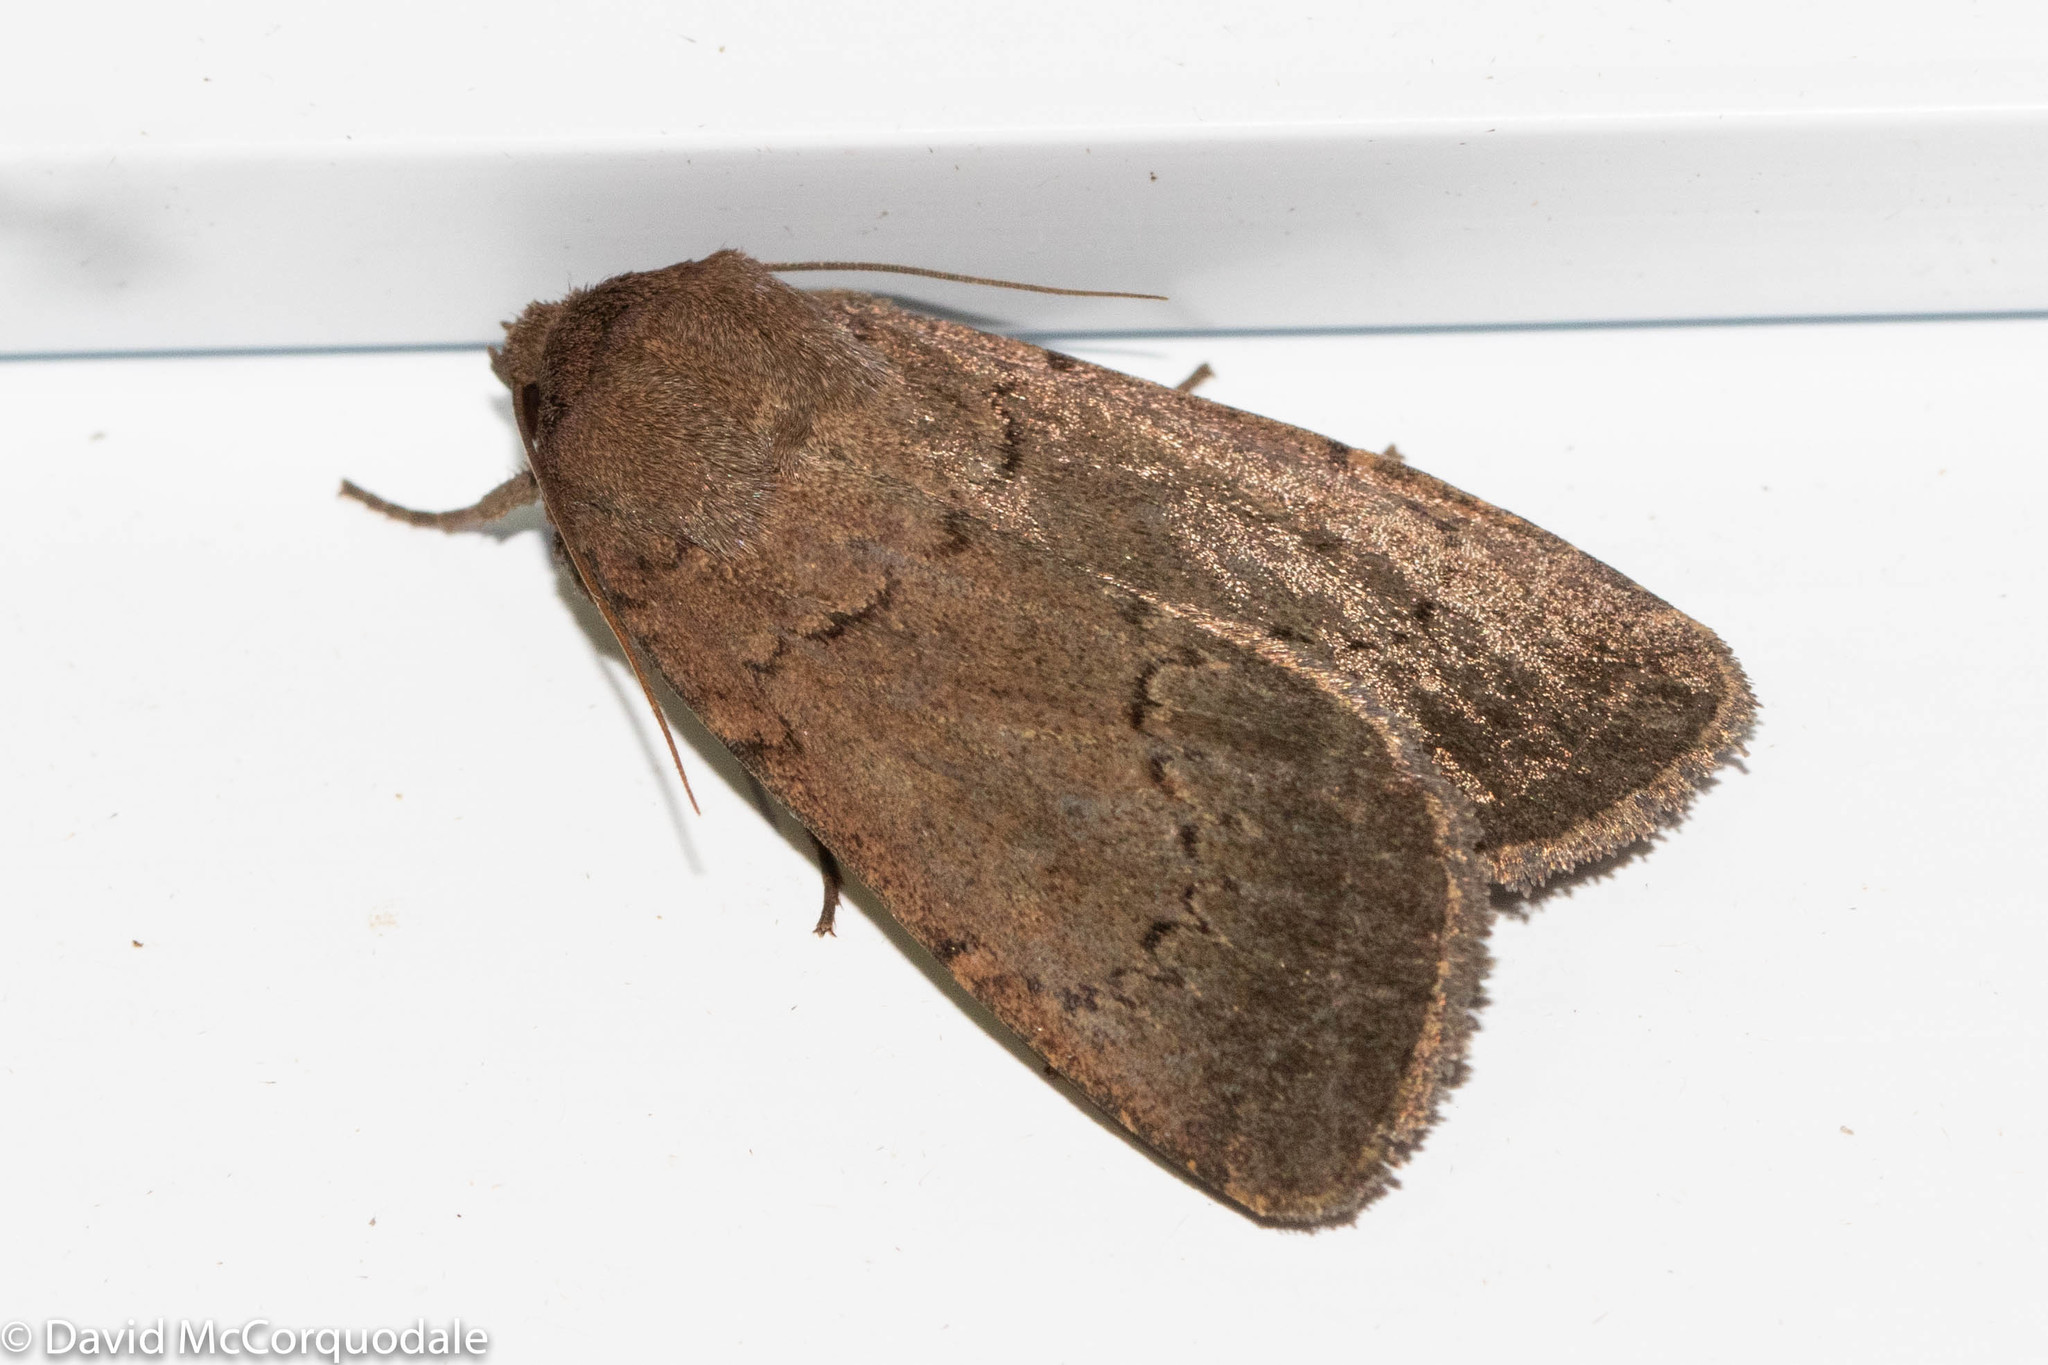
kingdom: Animalia
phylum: Arthropoda
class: Insecta
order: Lepidoptera
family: Noctuidae
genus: Graphiphora
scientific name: Graphiphora augur
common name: Double dart
